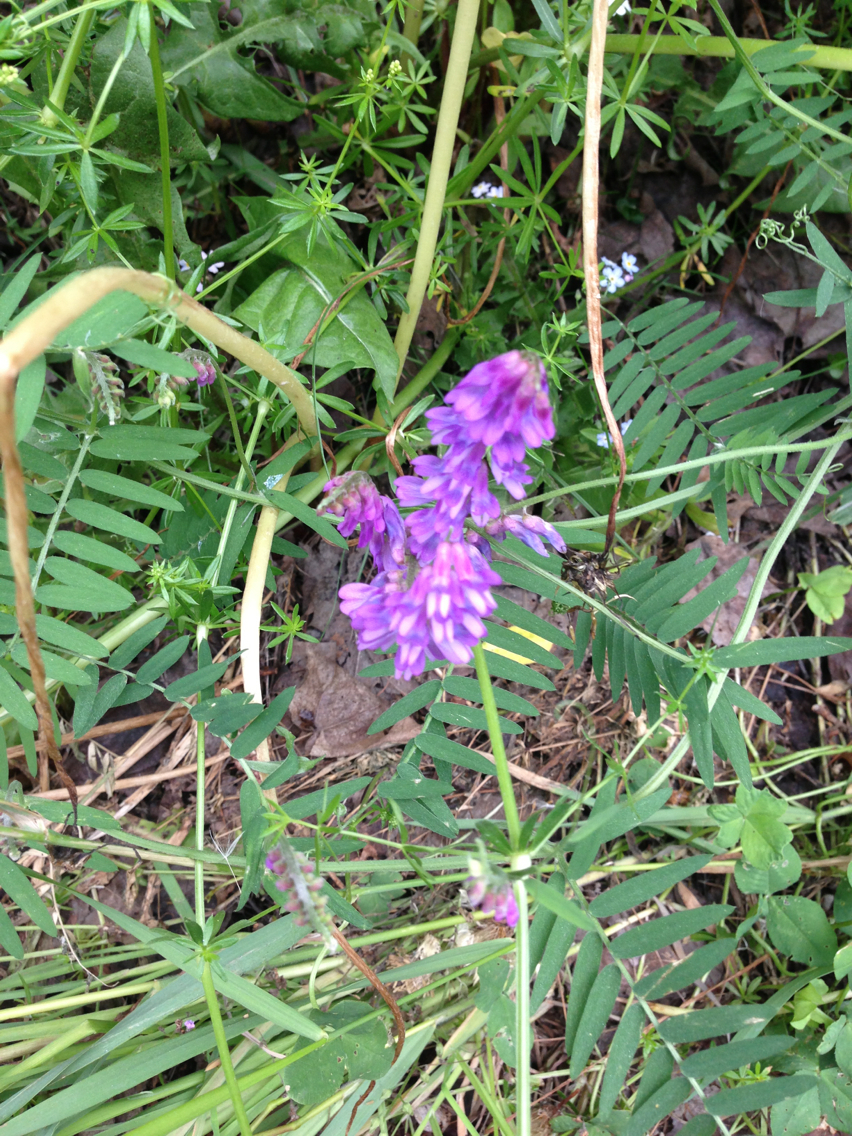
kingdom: Plantae
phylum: Tracheophyta
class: Magnoliopsida
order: Fabales
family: Fabaceae
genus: Vicia
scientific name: Vicia cracca
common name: Bird vetch
